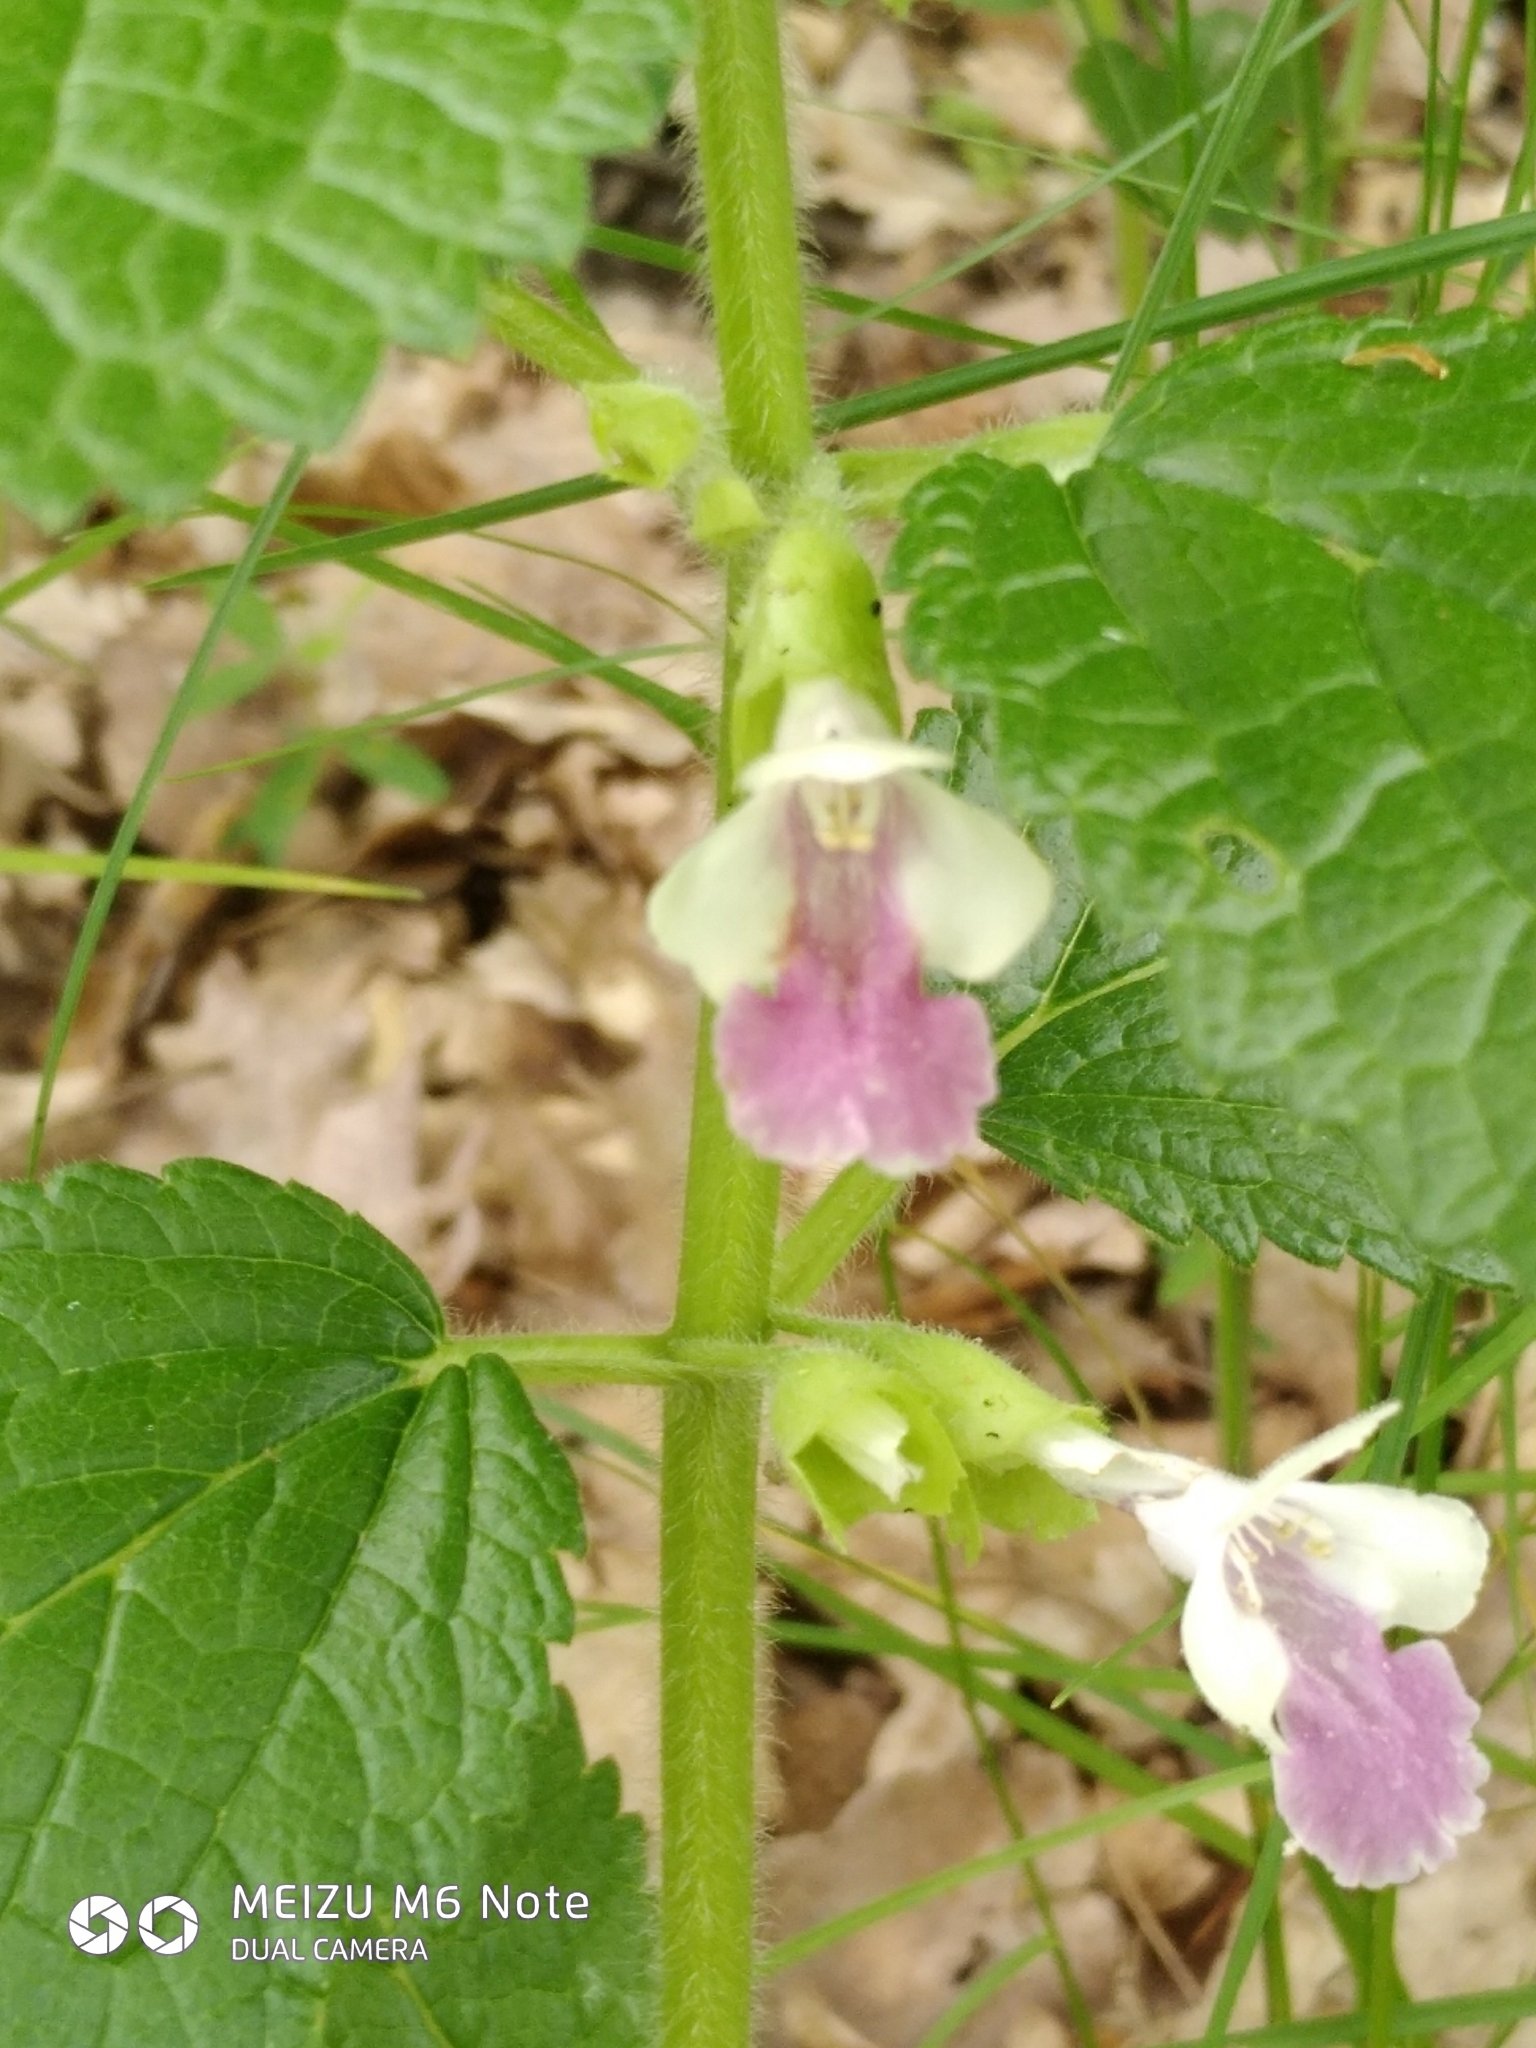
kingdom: Plantae
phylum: Tracheophyta
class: Magnoliopsida
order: Lamiales
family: Lamiaceae
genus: Melittis
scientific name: Melittis melissophyllum
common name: Bastard balm
